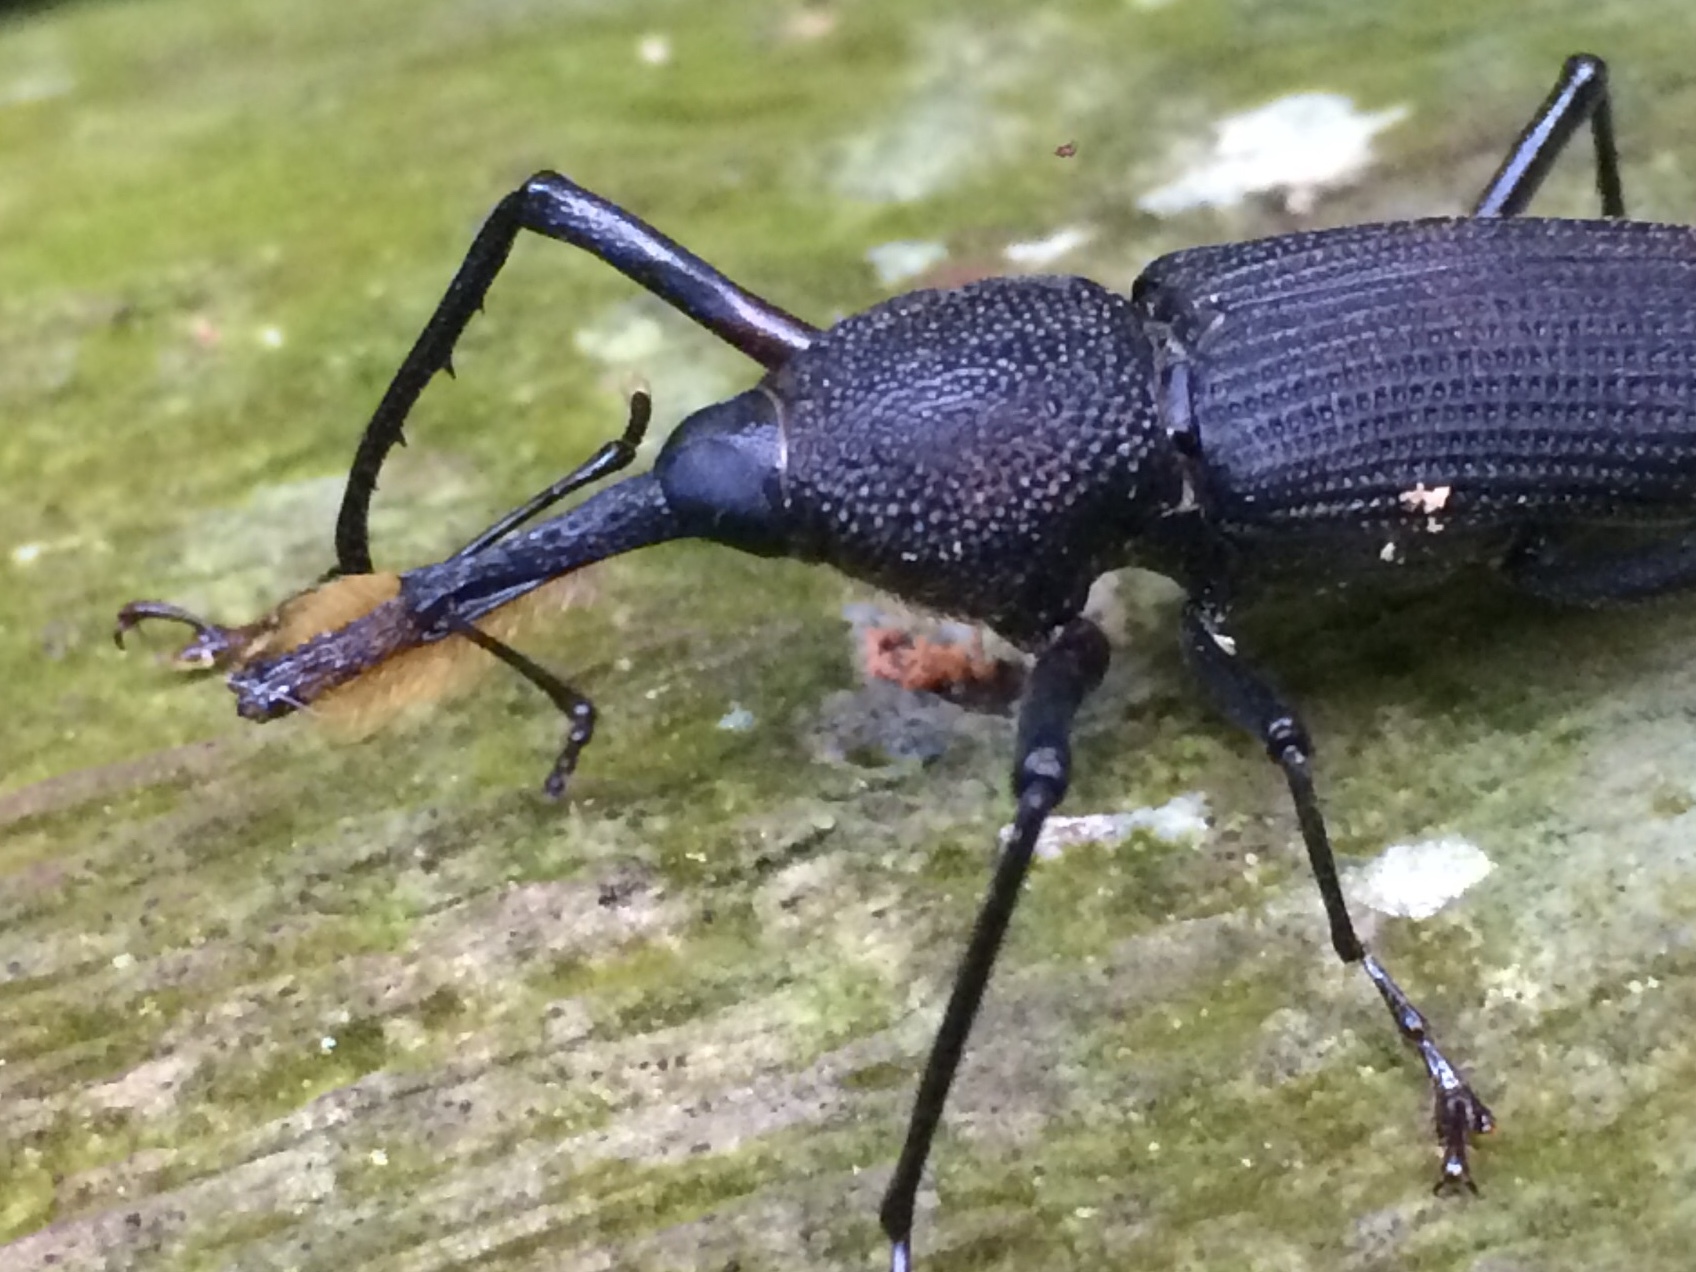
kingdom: Animalia
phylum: Arthropoda
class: Insecta
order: Coleoptera
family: Dryophthoridae
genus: Rhinostomus
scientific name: Rhinostomus barbirostris
